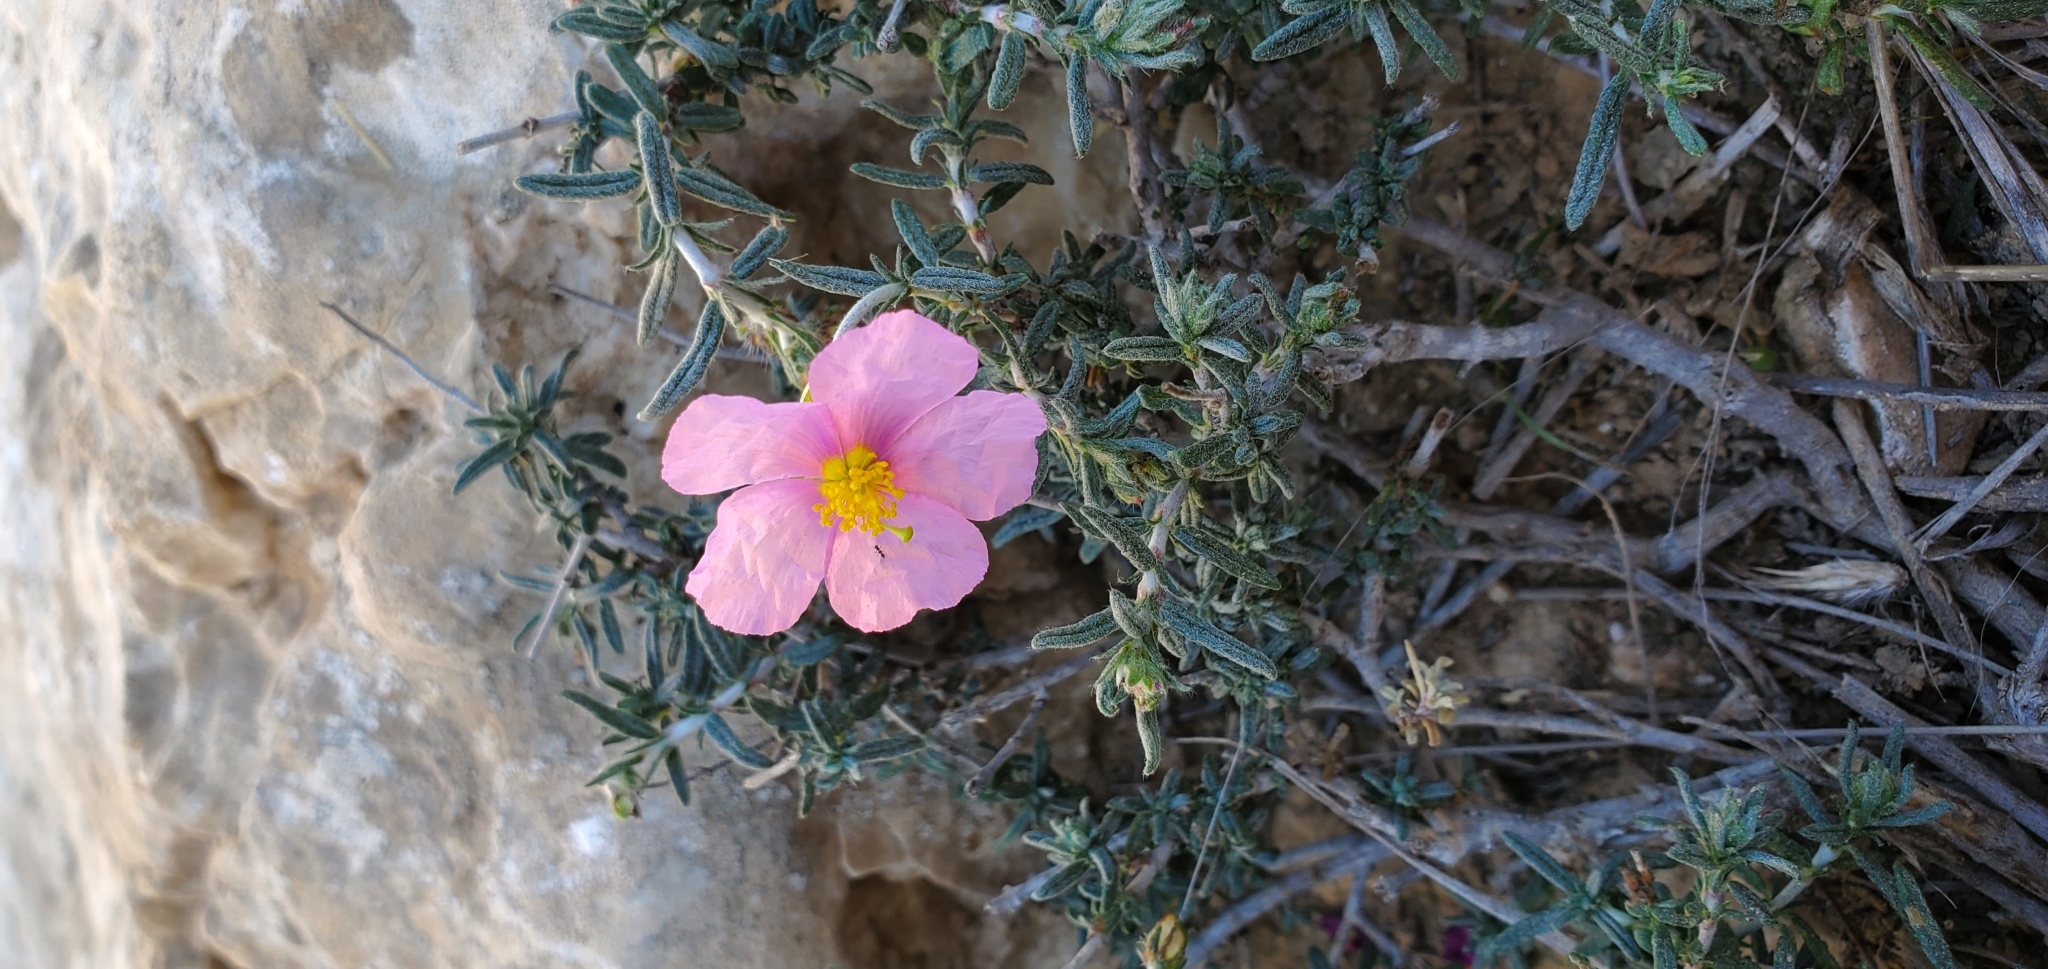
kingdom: Plantae
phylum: Tracheophyta
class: Magnoliopsida
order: Malvales
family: Cistaceae
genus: Helianthemum
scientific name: Helianthemum vesicarium
